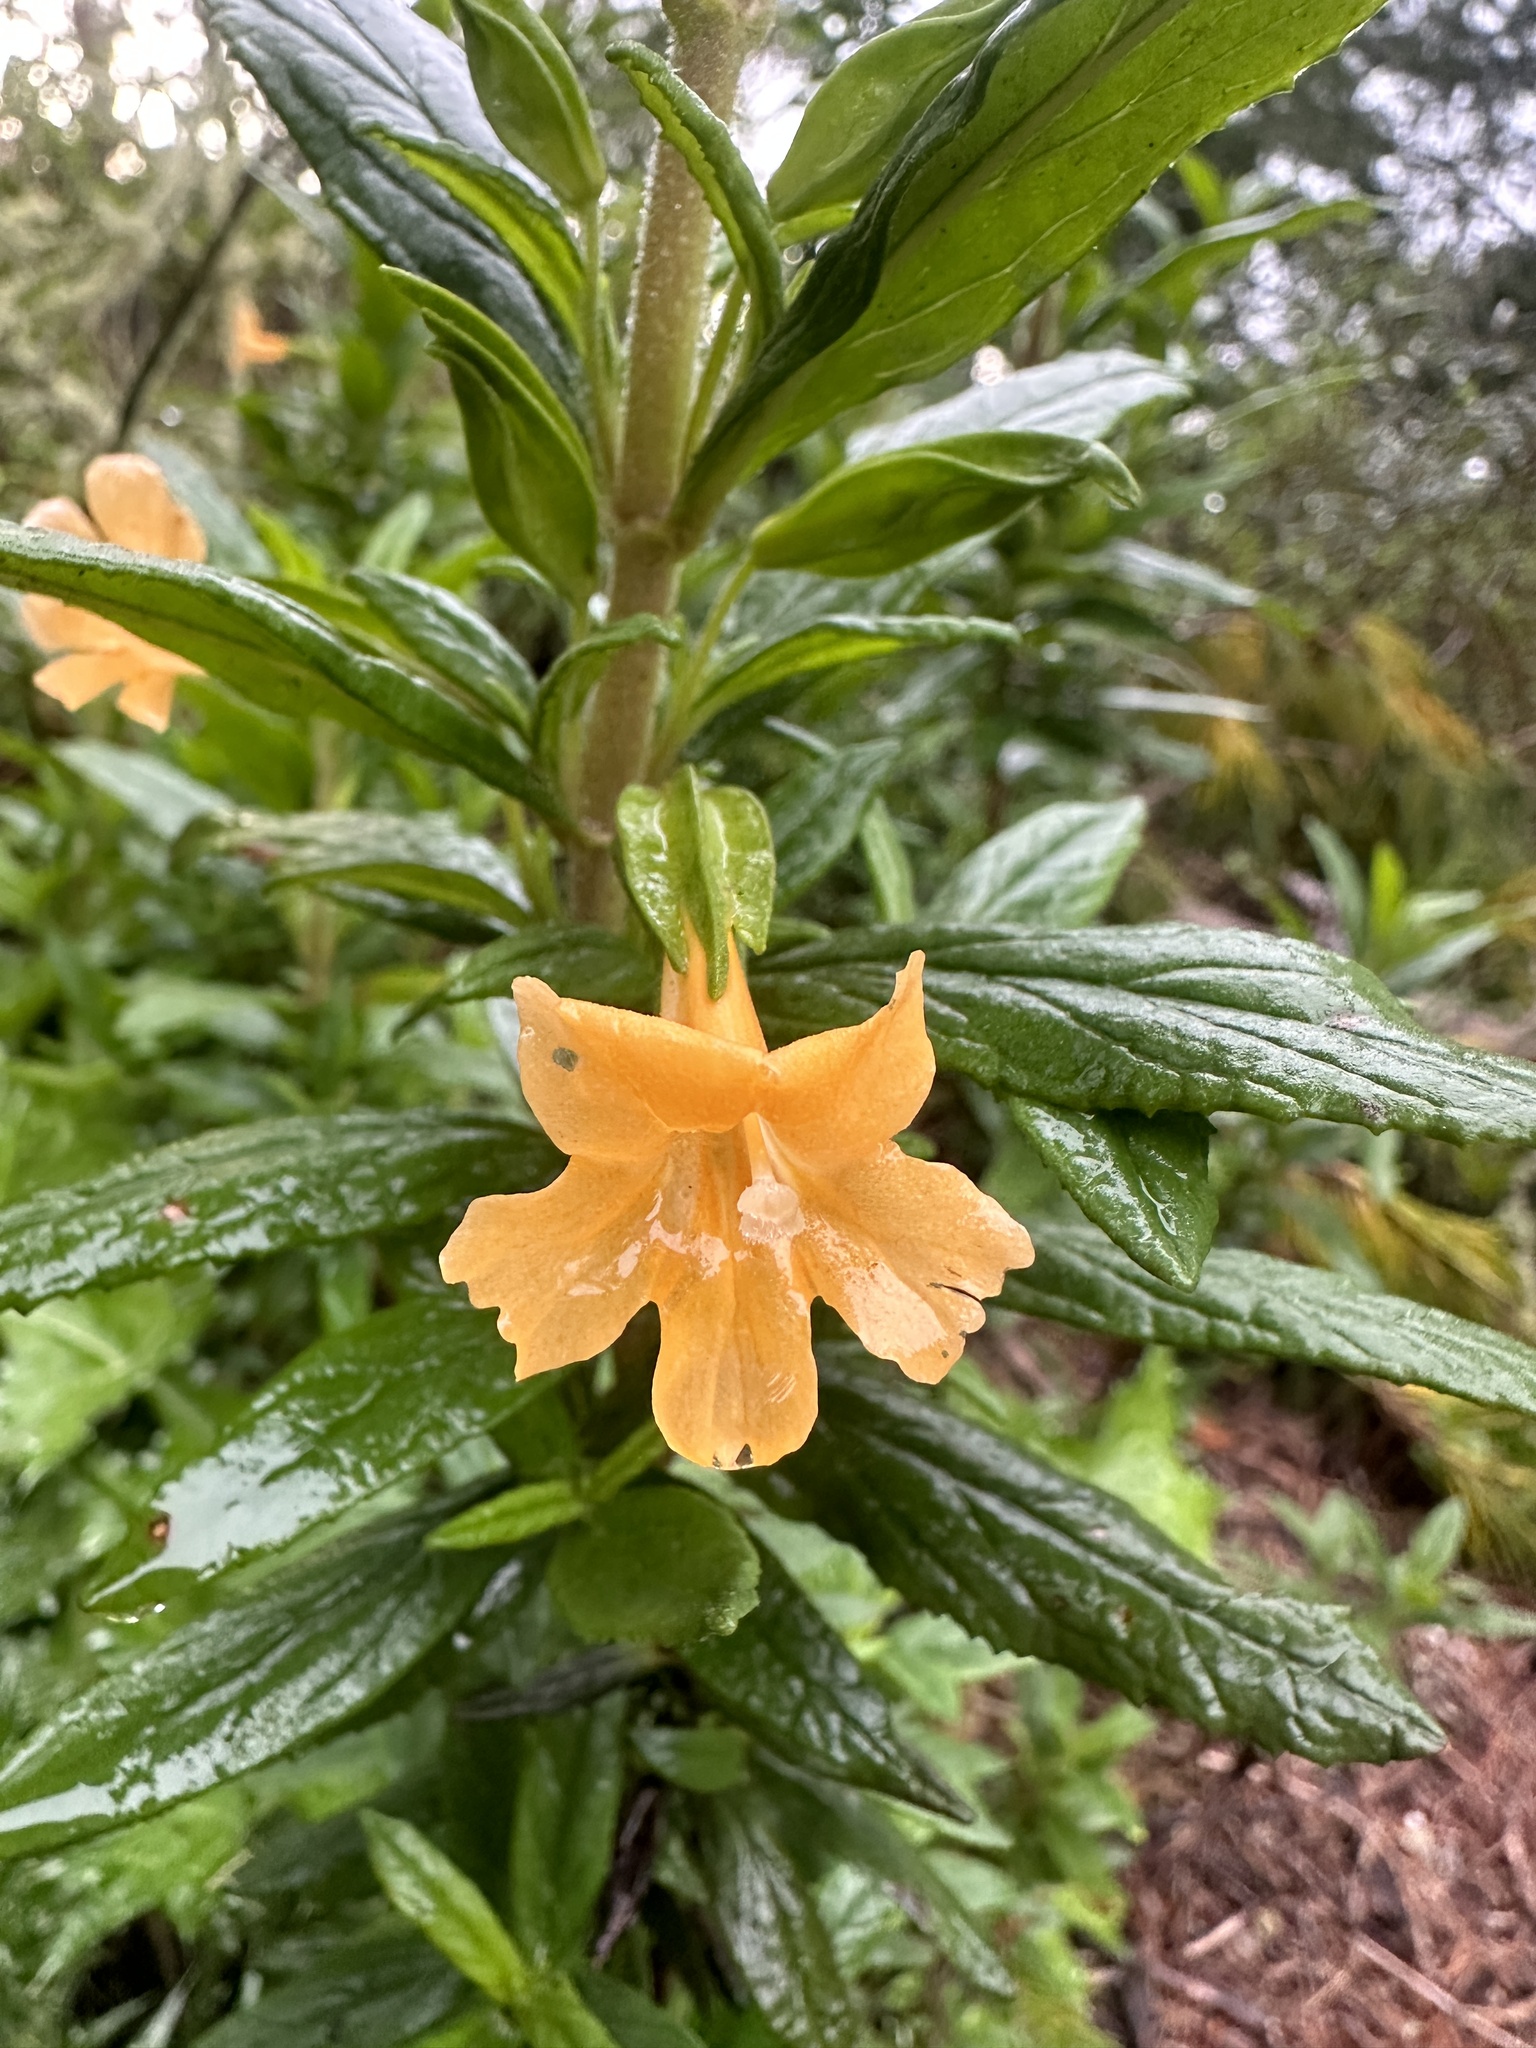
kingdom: Plantae
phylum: Tracheophyta
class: Magnoliopsida
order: Lamiales
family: Phrymaceae
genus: Diplacus
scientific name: Diplacus aurantiacus
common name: Bush monkey-flower
